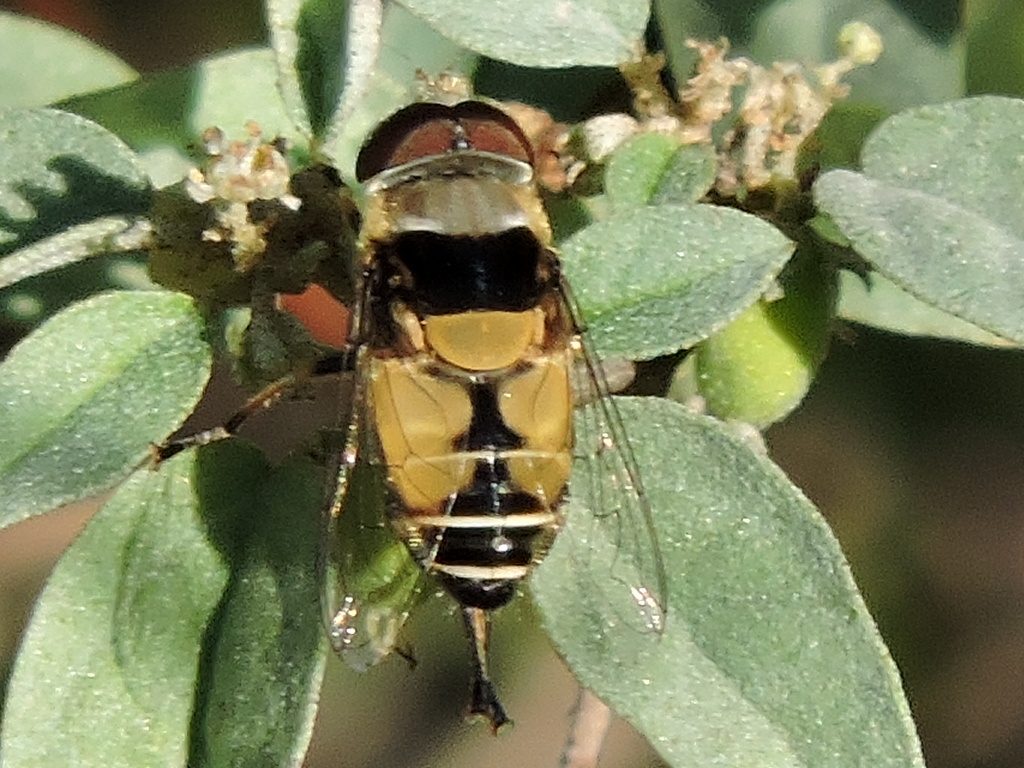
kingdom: Animalia
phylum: Arthropoda
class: Insecta
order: Diptera
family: Syrphidae
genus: Palpada
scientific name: Palpada pusilla
